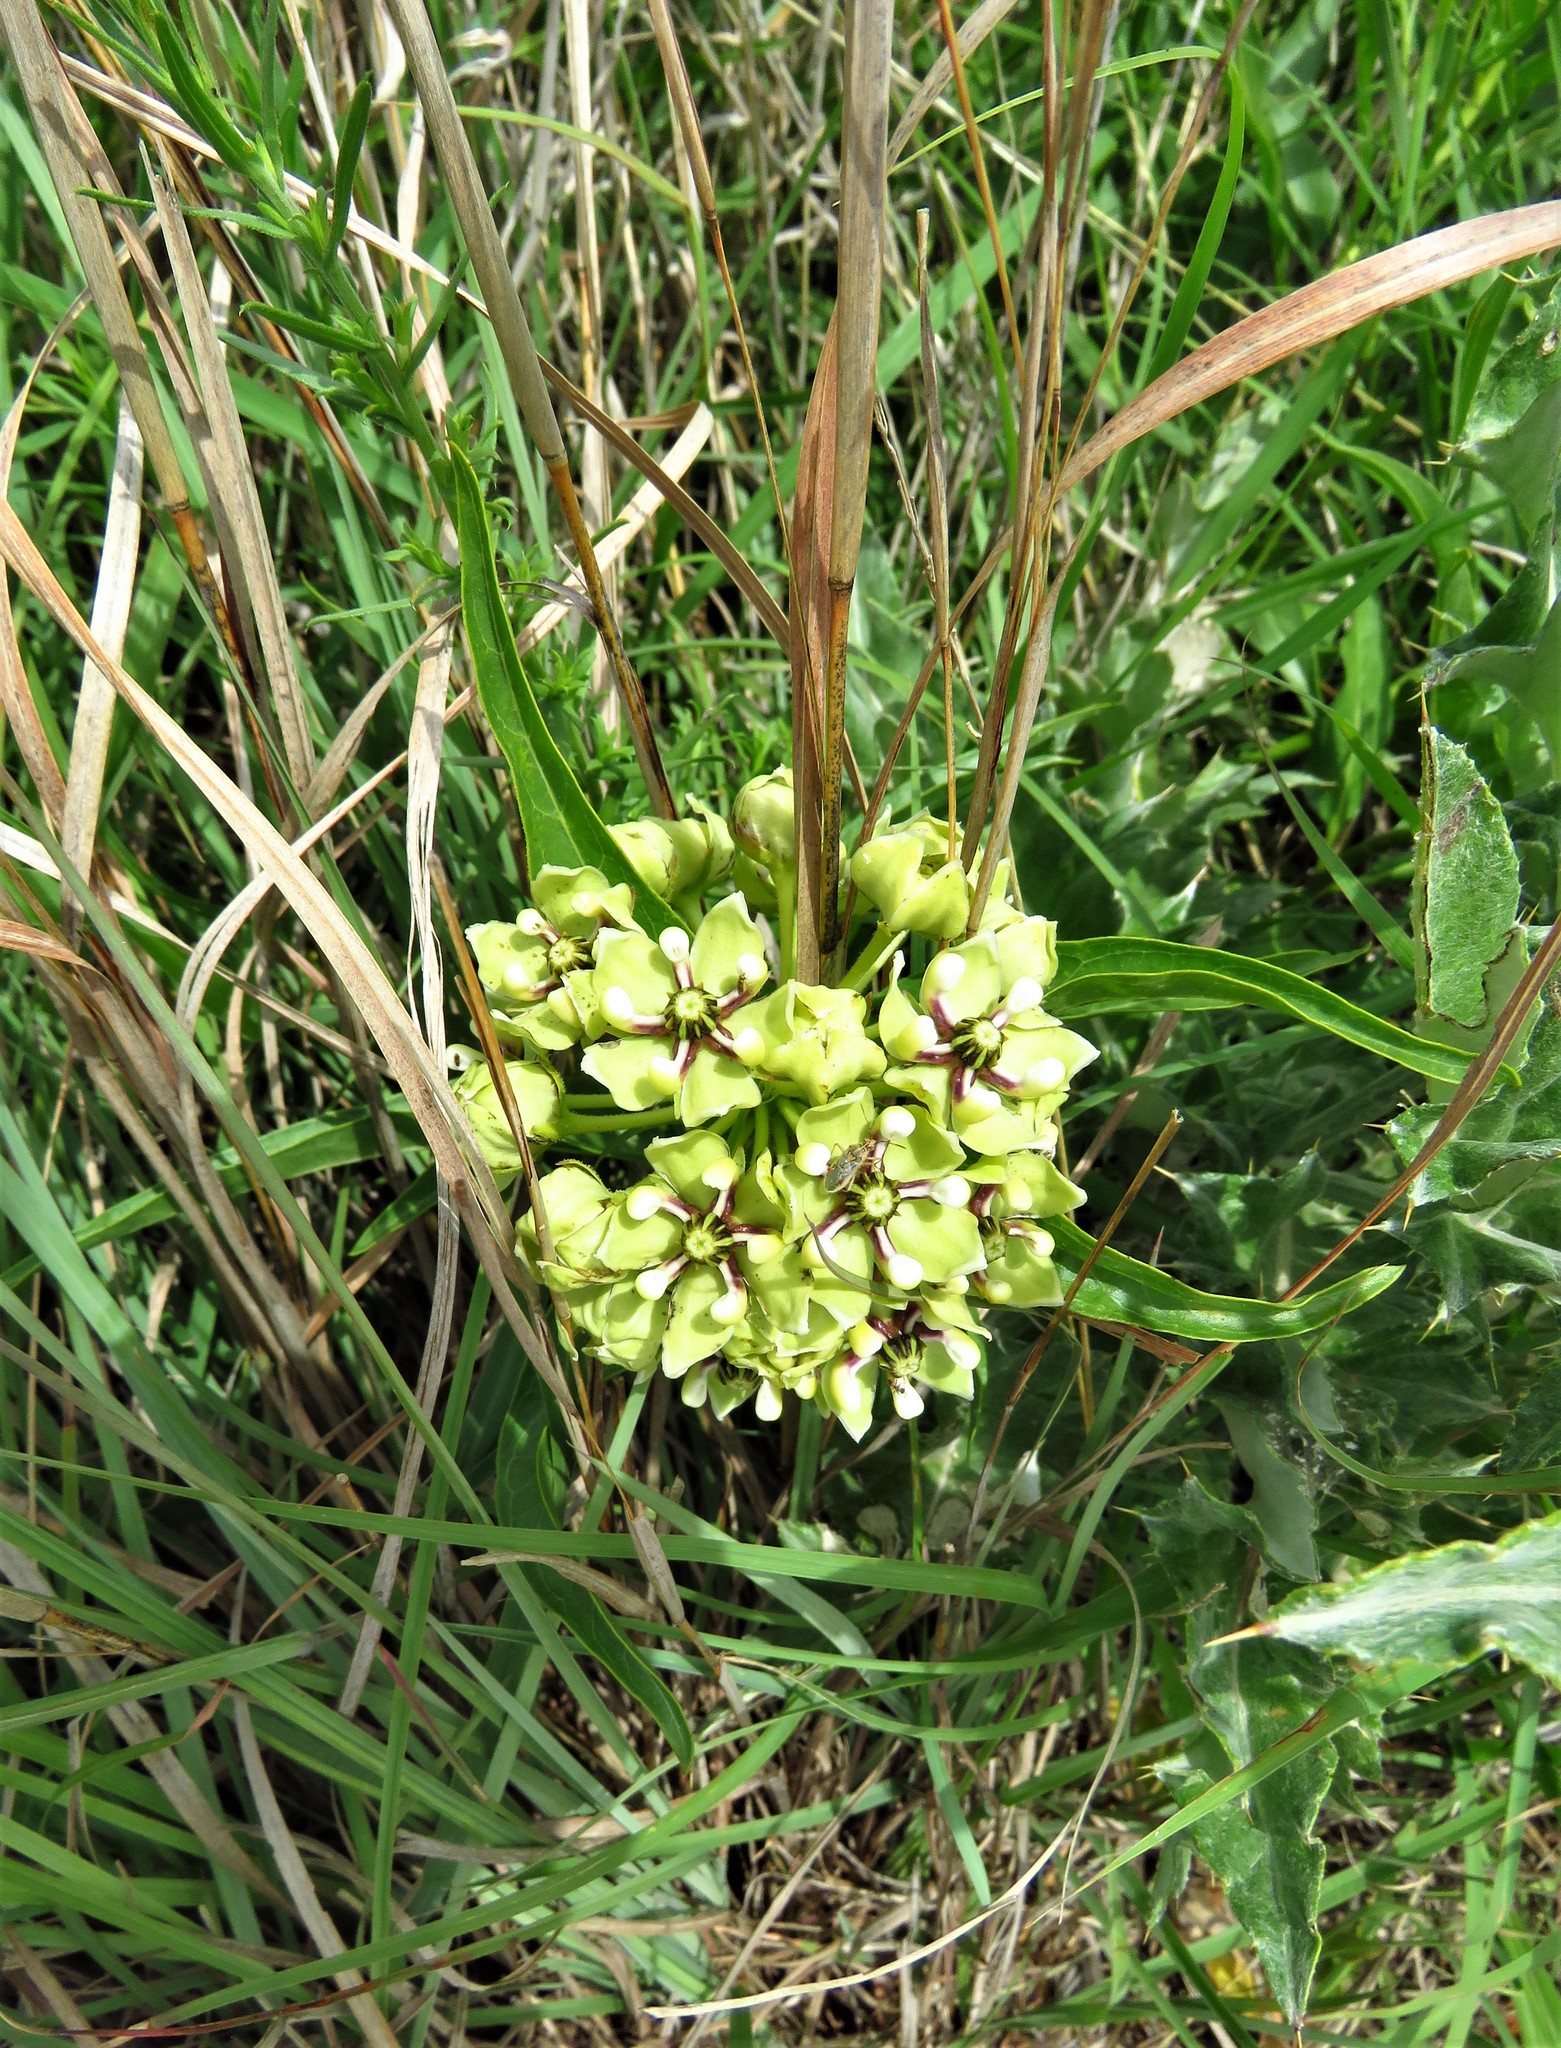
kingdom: Plantae
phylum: Tracheophyta
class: Magnoliopsida
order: Gentianales
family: Apocynaceae
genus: Asclepias
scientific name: Asclepias asperula
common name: Antelope horns
